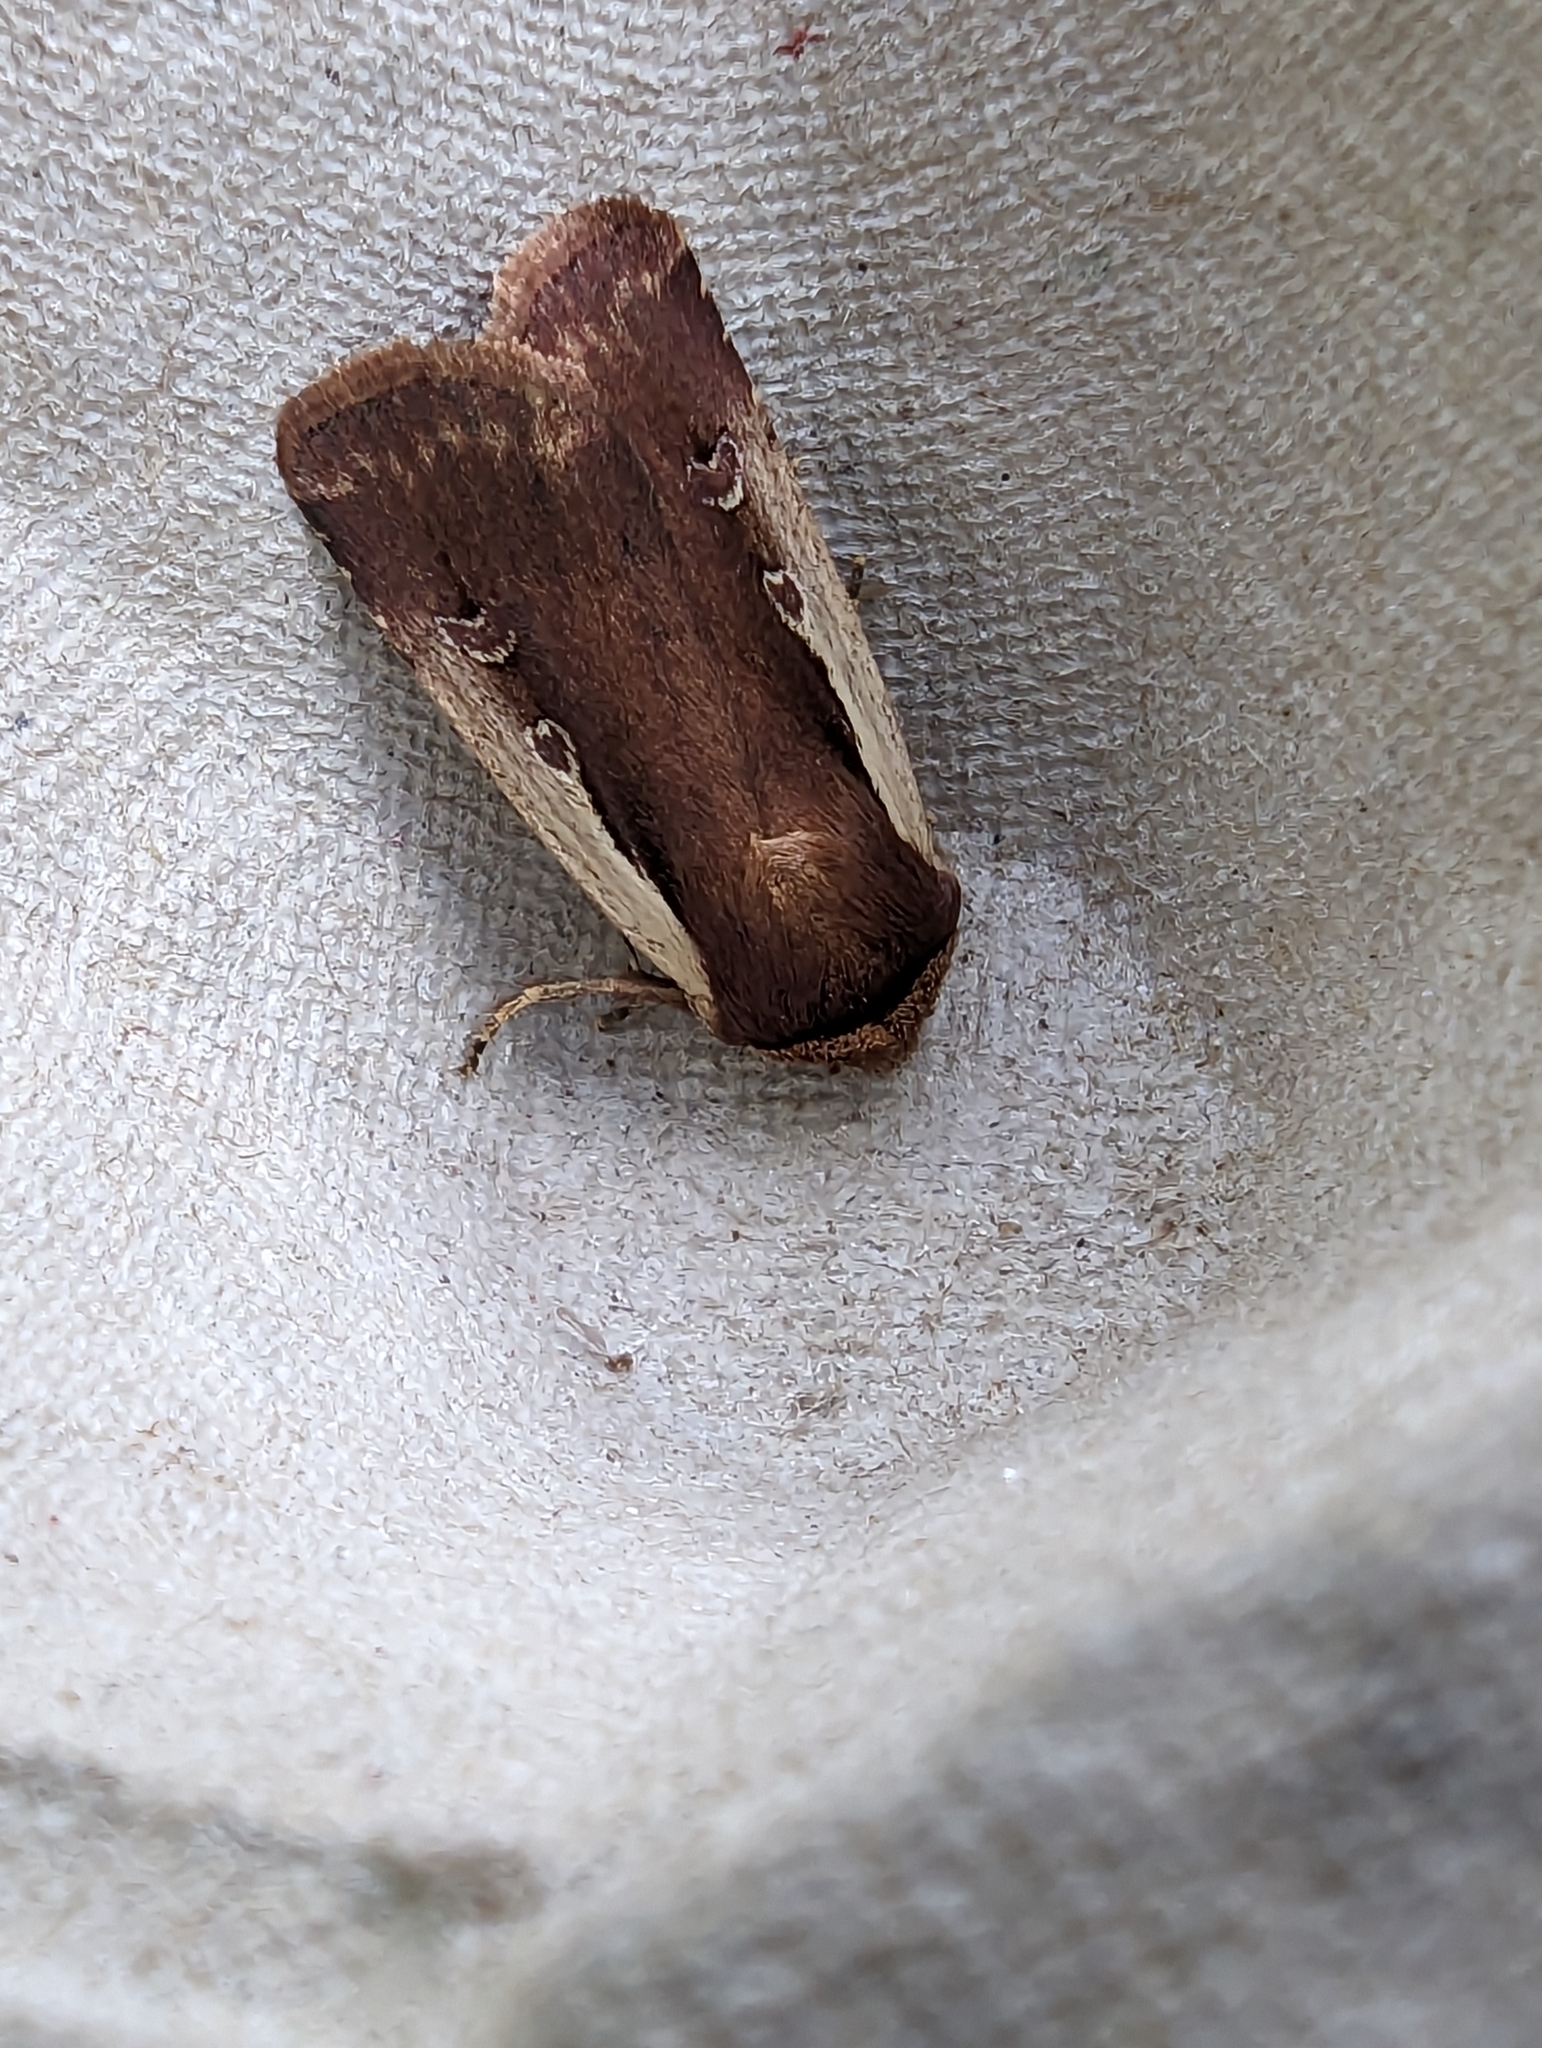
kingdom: Animalia
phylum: Arthropoda
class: Insecta
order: Lepidoptera
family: Noctuidae
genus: Ochropleura
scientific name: Ochropleura plecta
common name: Flame shoulder
